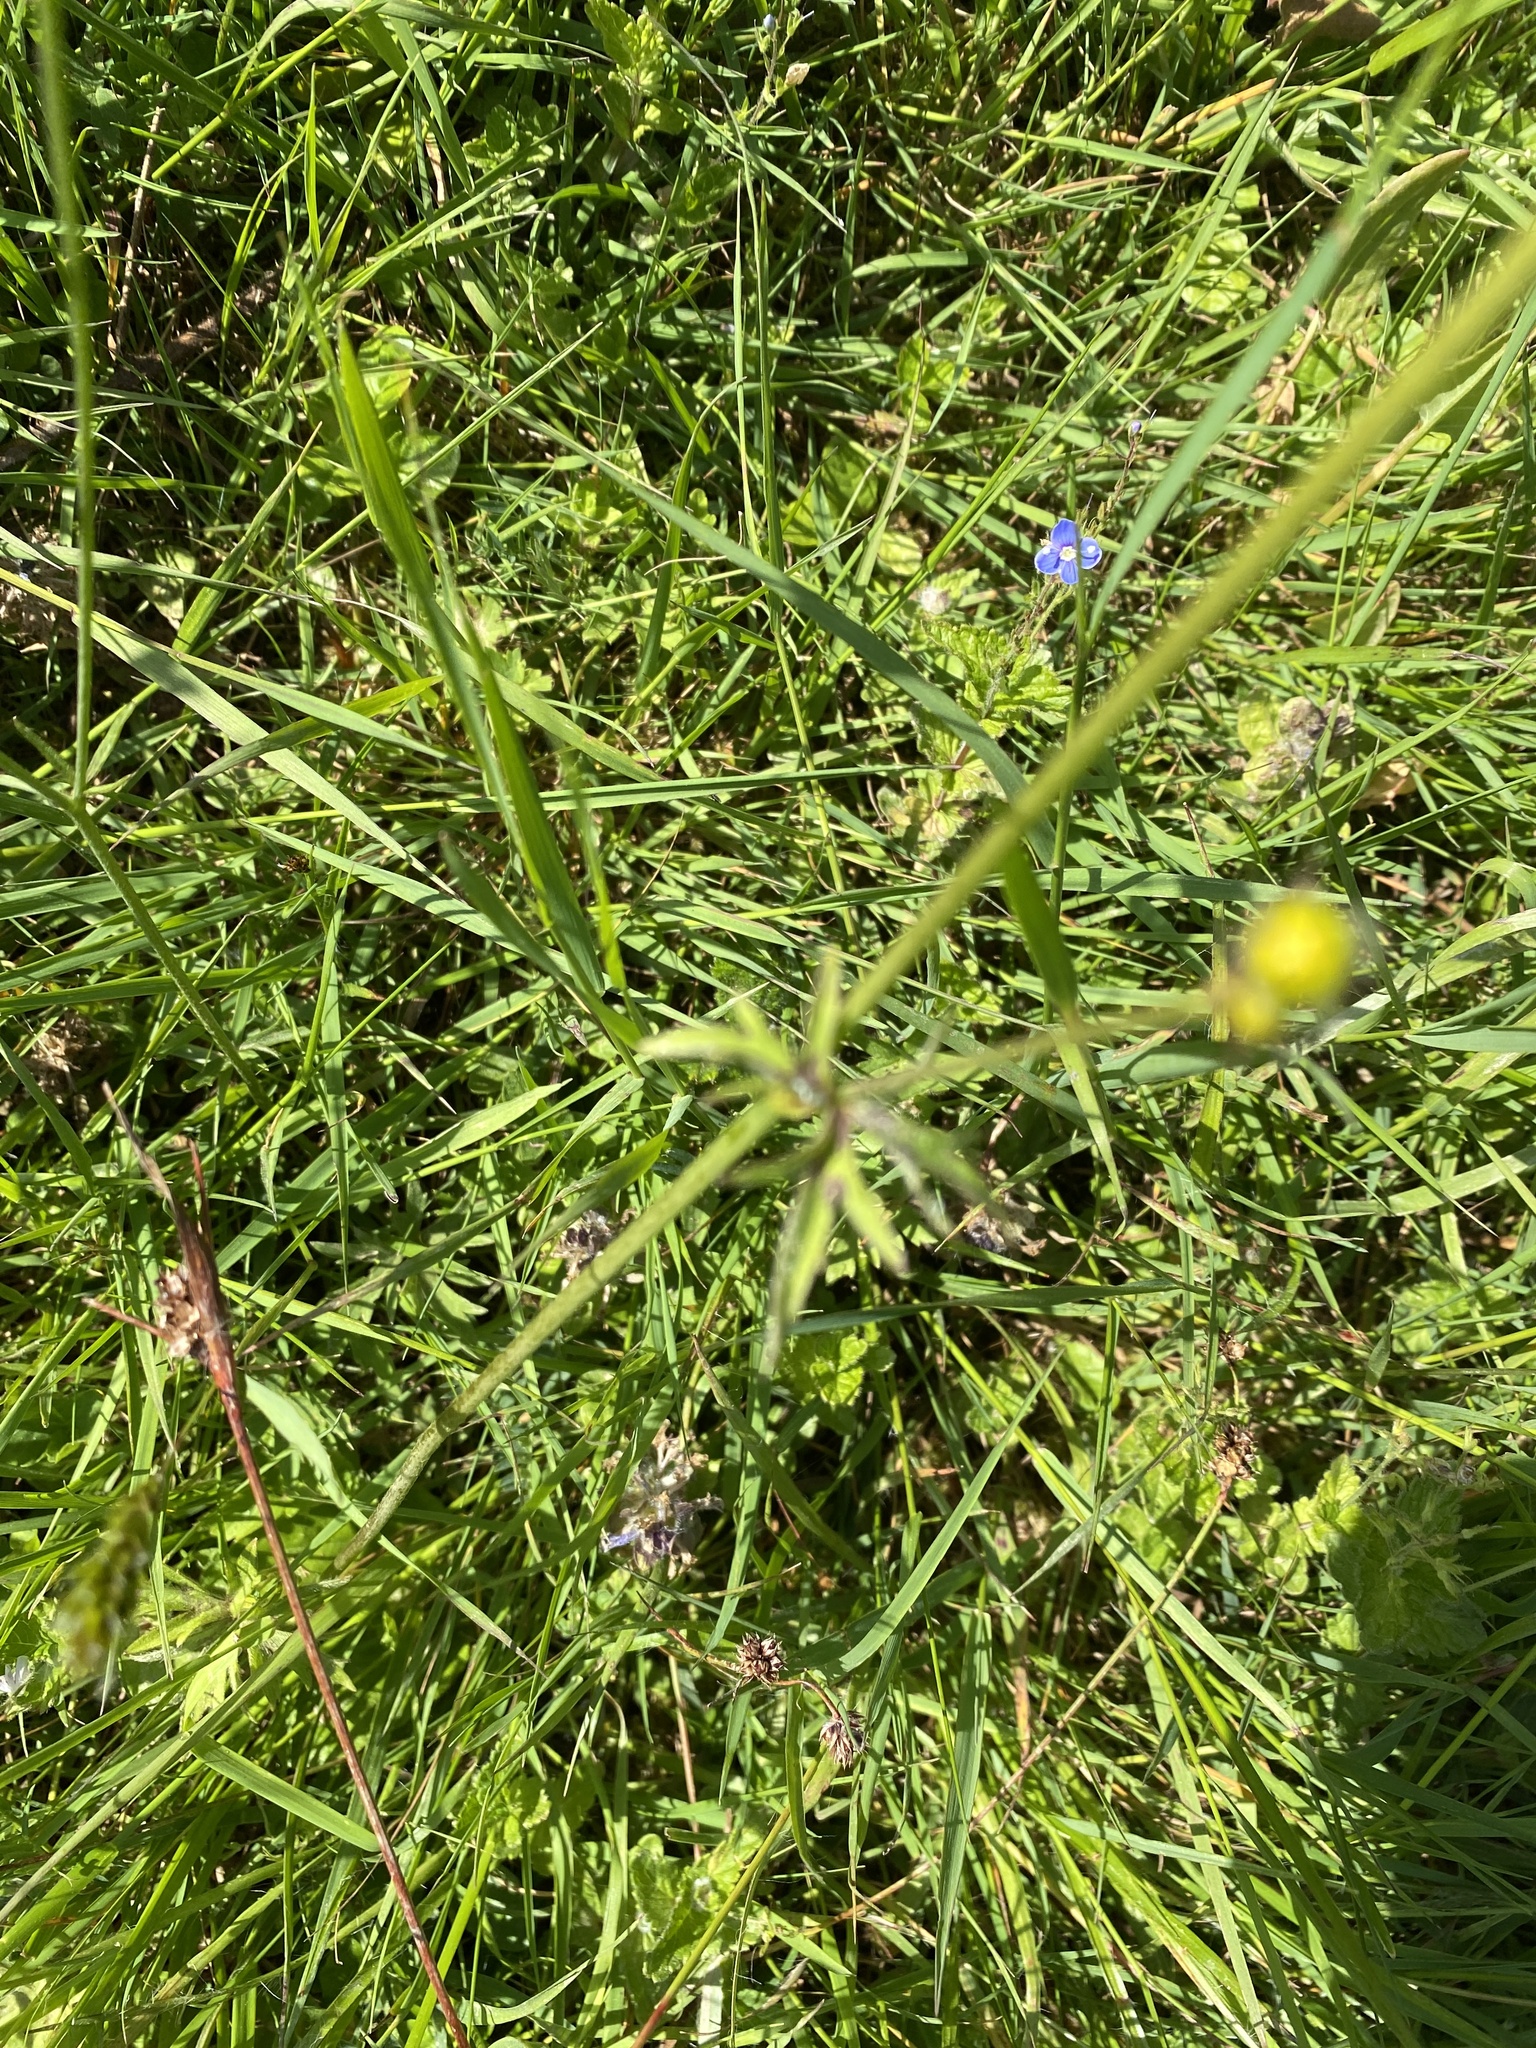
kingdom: Plantae
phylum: Tracheophyta
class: Magnoliopsida
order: Ranunculales
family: Ranunculaceae
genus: Ranunculus
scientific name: Ranunculus acris
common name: Meadow buttercup
